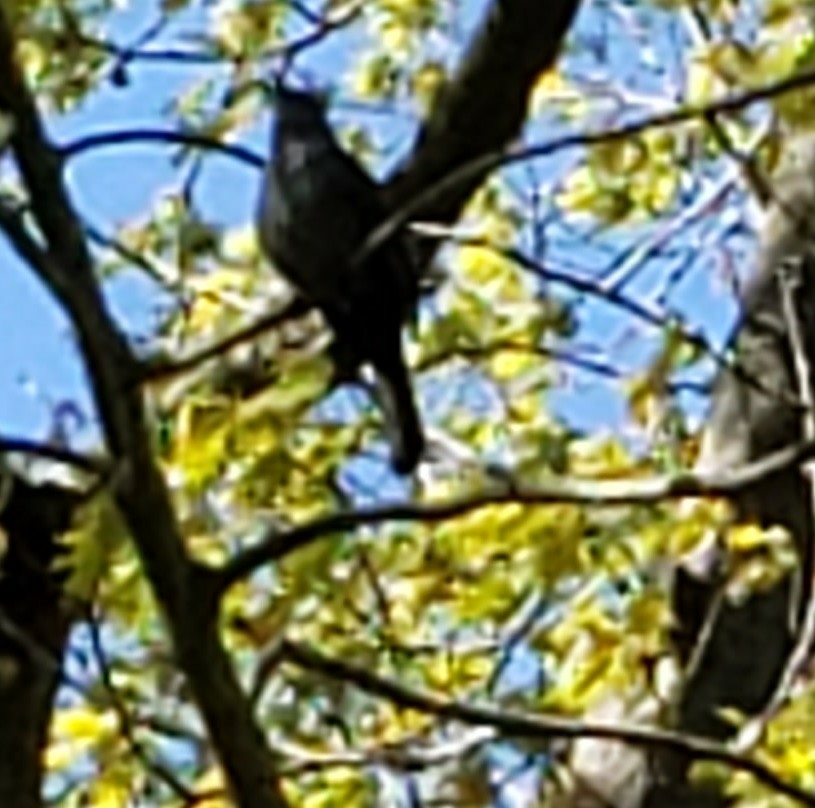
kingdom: Animalia
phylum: Chordata
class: Aves
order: Passeriformes
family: Mimidae
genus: Dumetella
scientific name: Dumetella carolinensis
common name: Gray catbird
